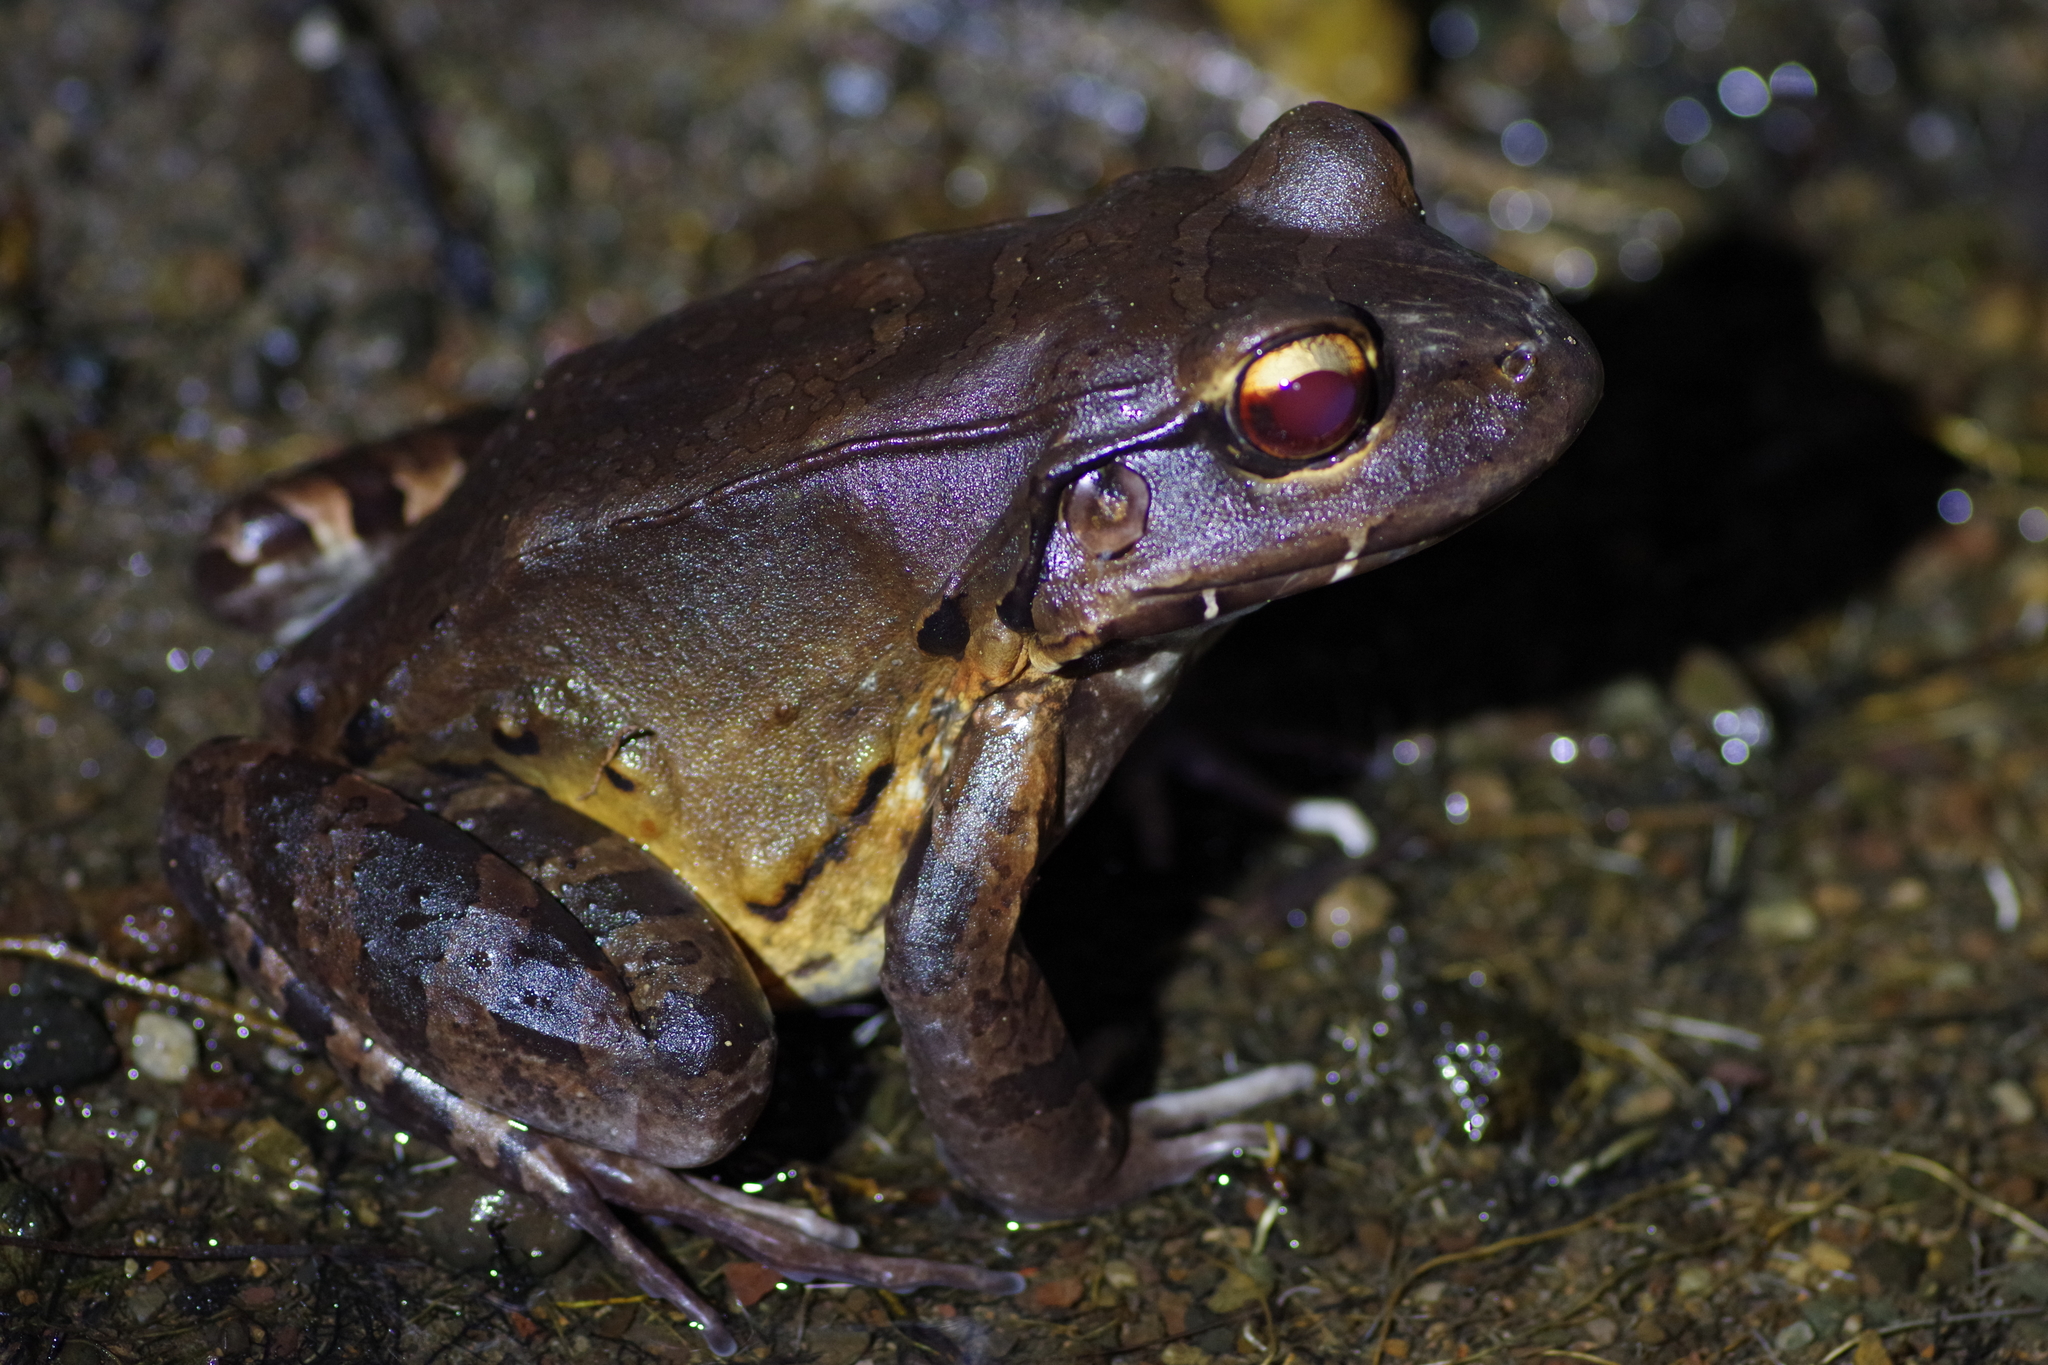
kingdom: Animalia
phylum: Chordata
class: Amphibia
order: Anura
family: Leptodactylidae
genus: Leptodactylus
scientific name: Leptodactylus savagei
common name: Savage's thin-toed frog
